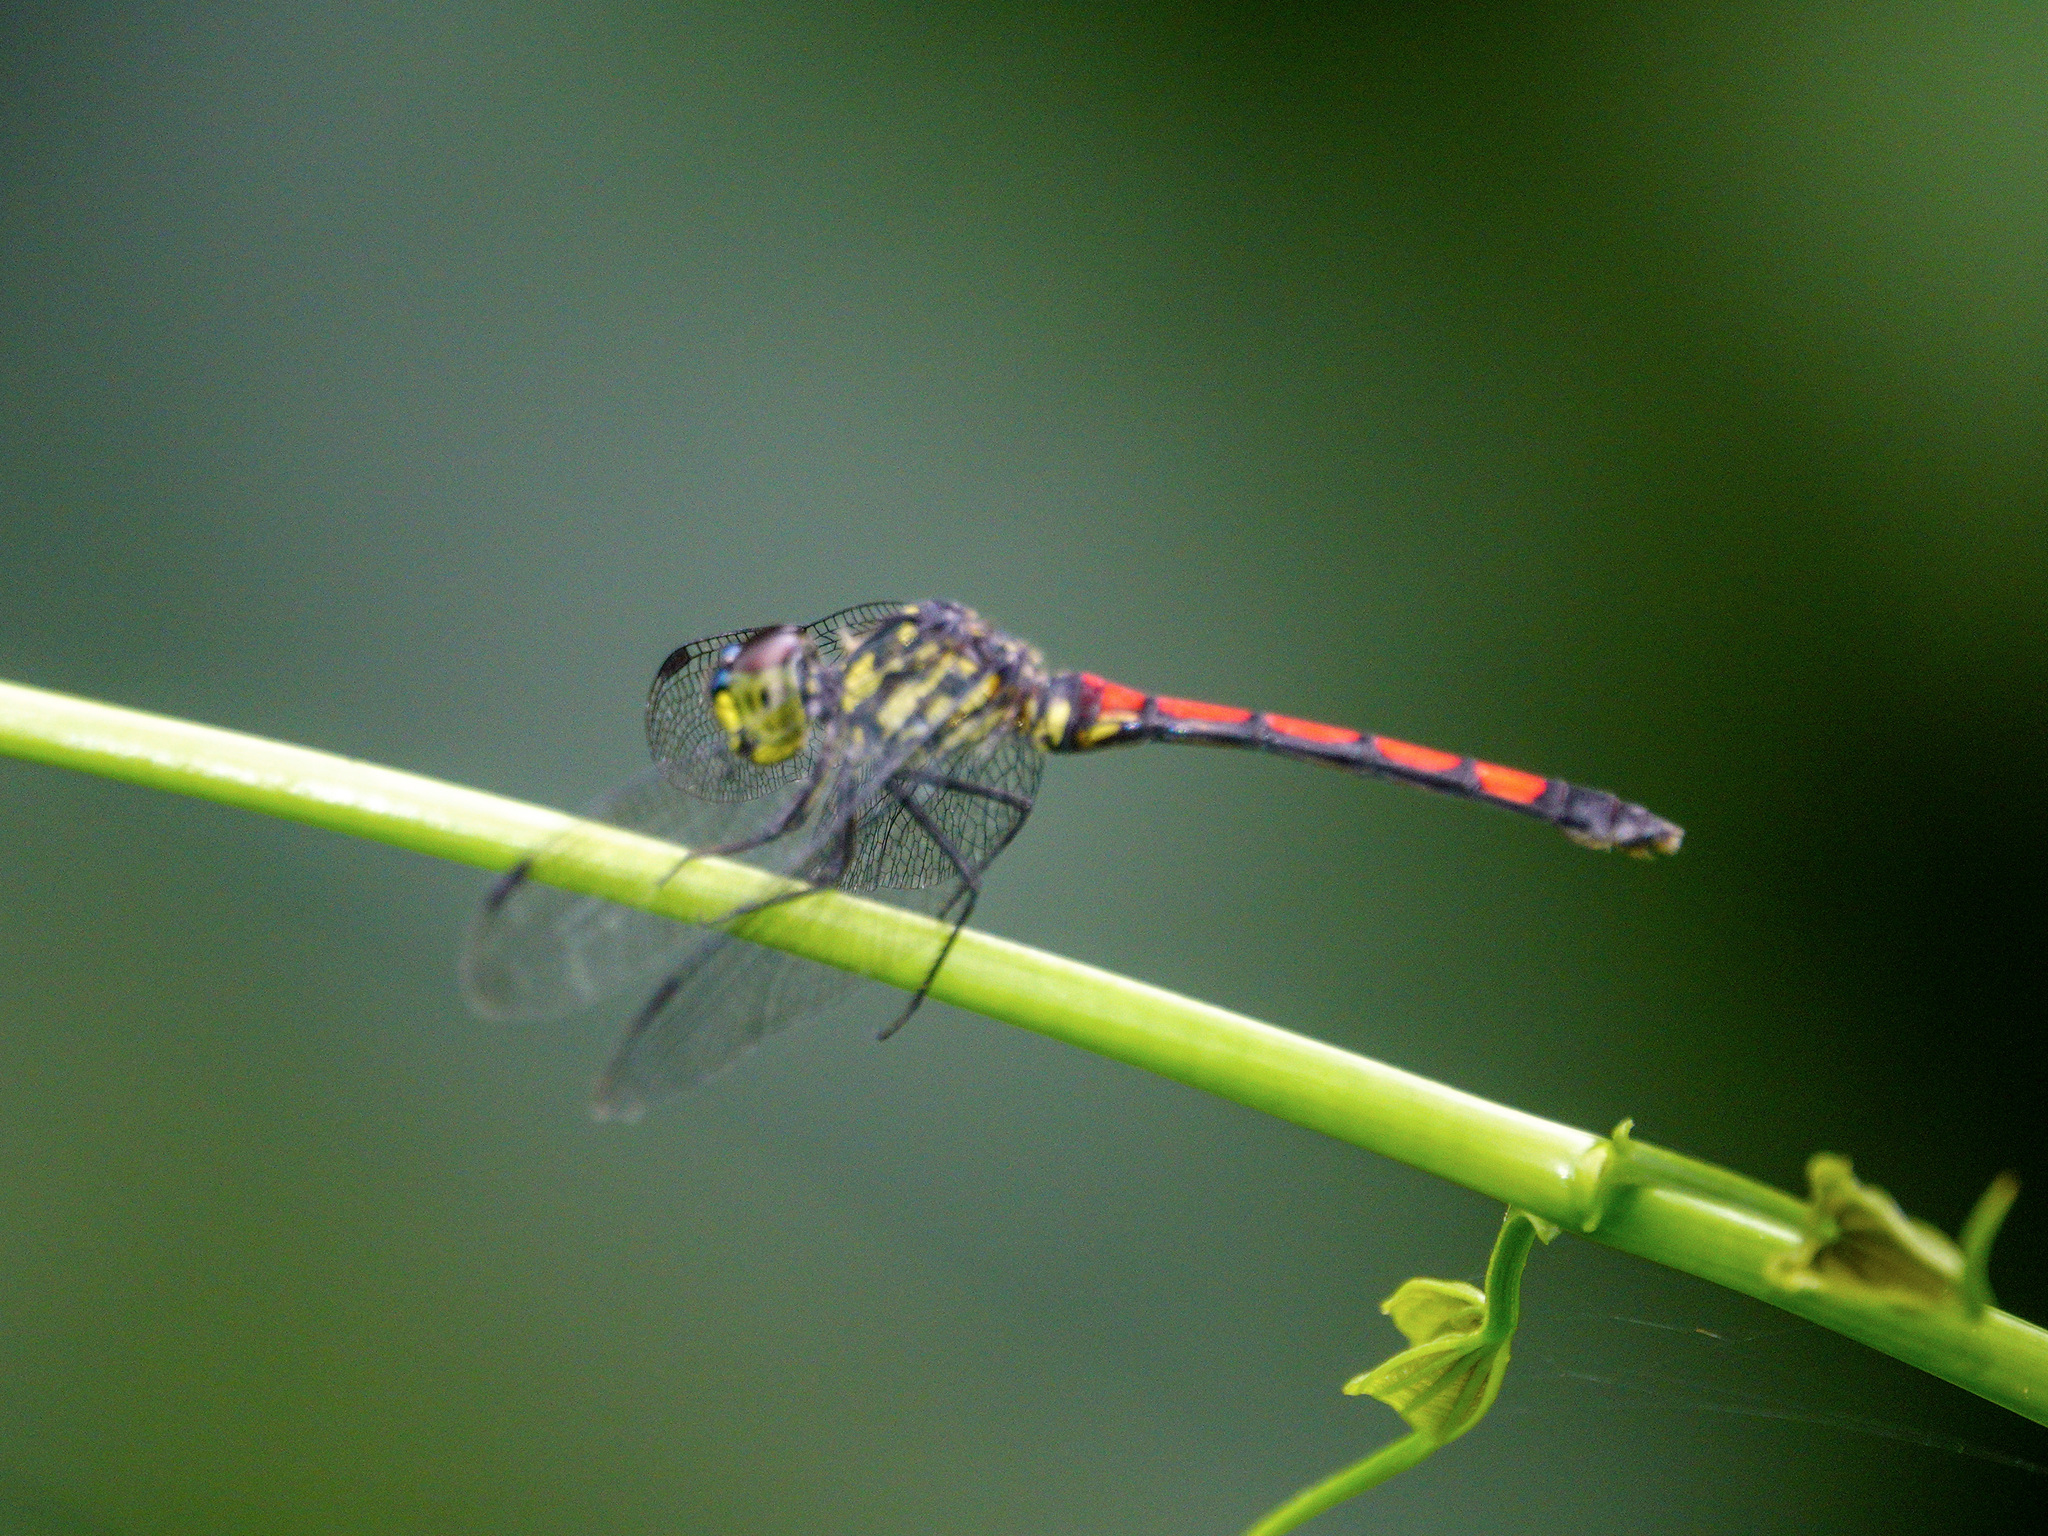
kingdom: Animalia
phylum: Arthropoda
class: Insecta
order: Odonata
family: Libellulidae
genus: Agrionoptera
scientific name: Agrionoptera insignis
